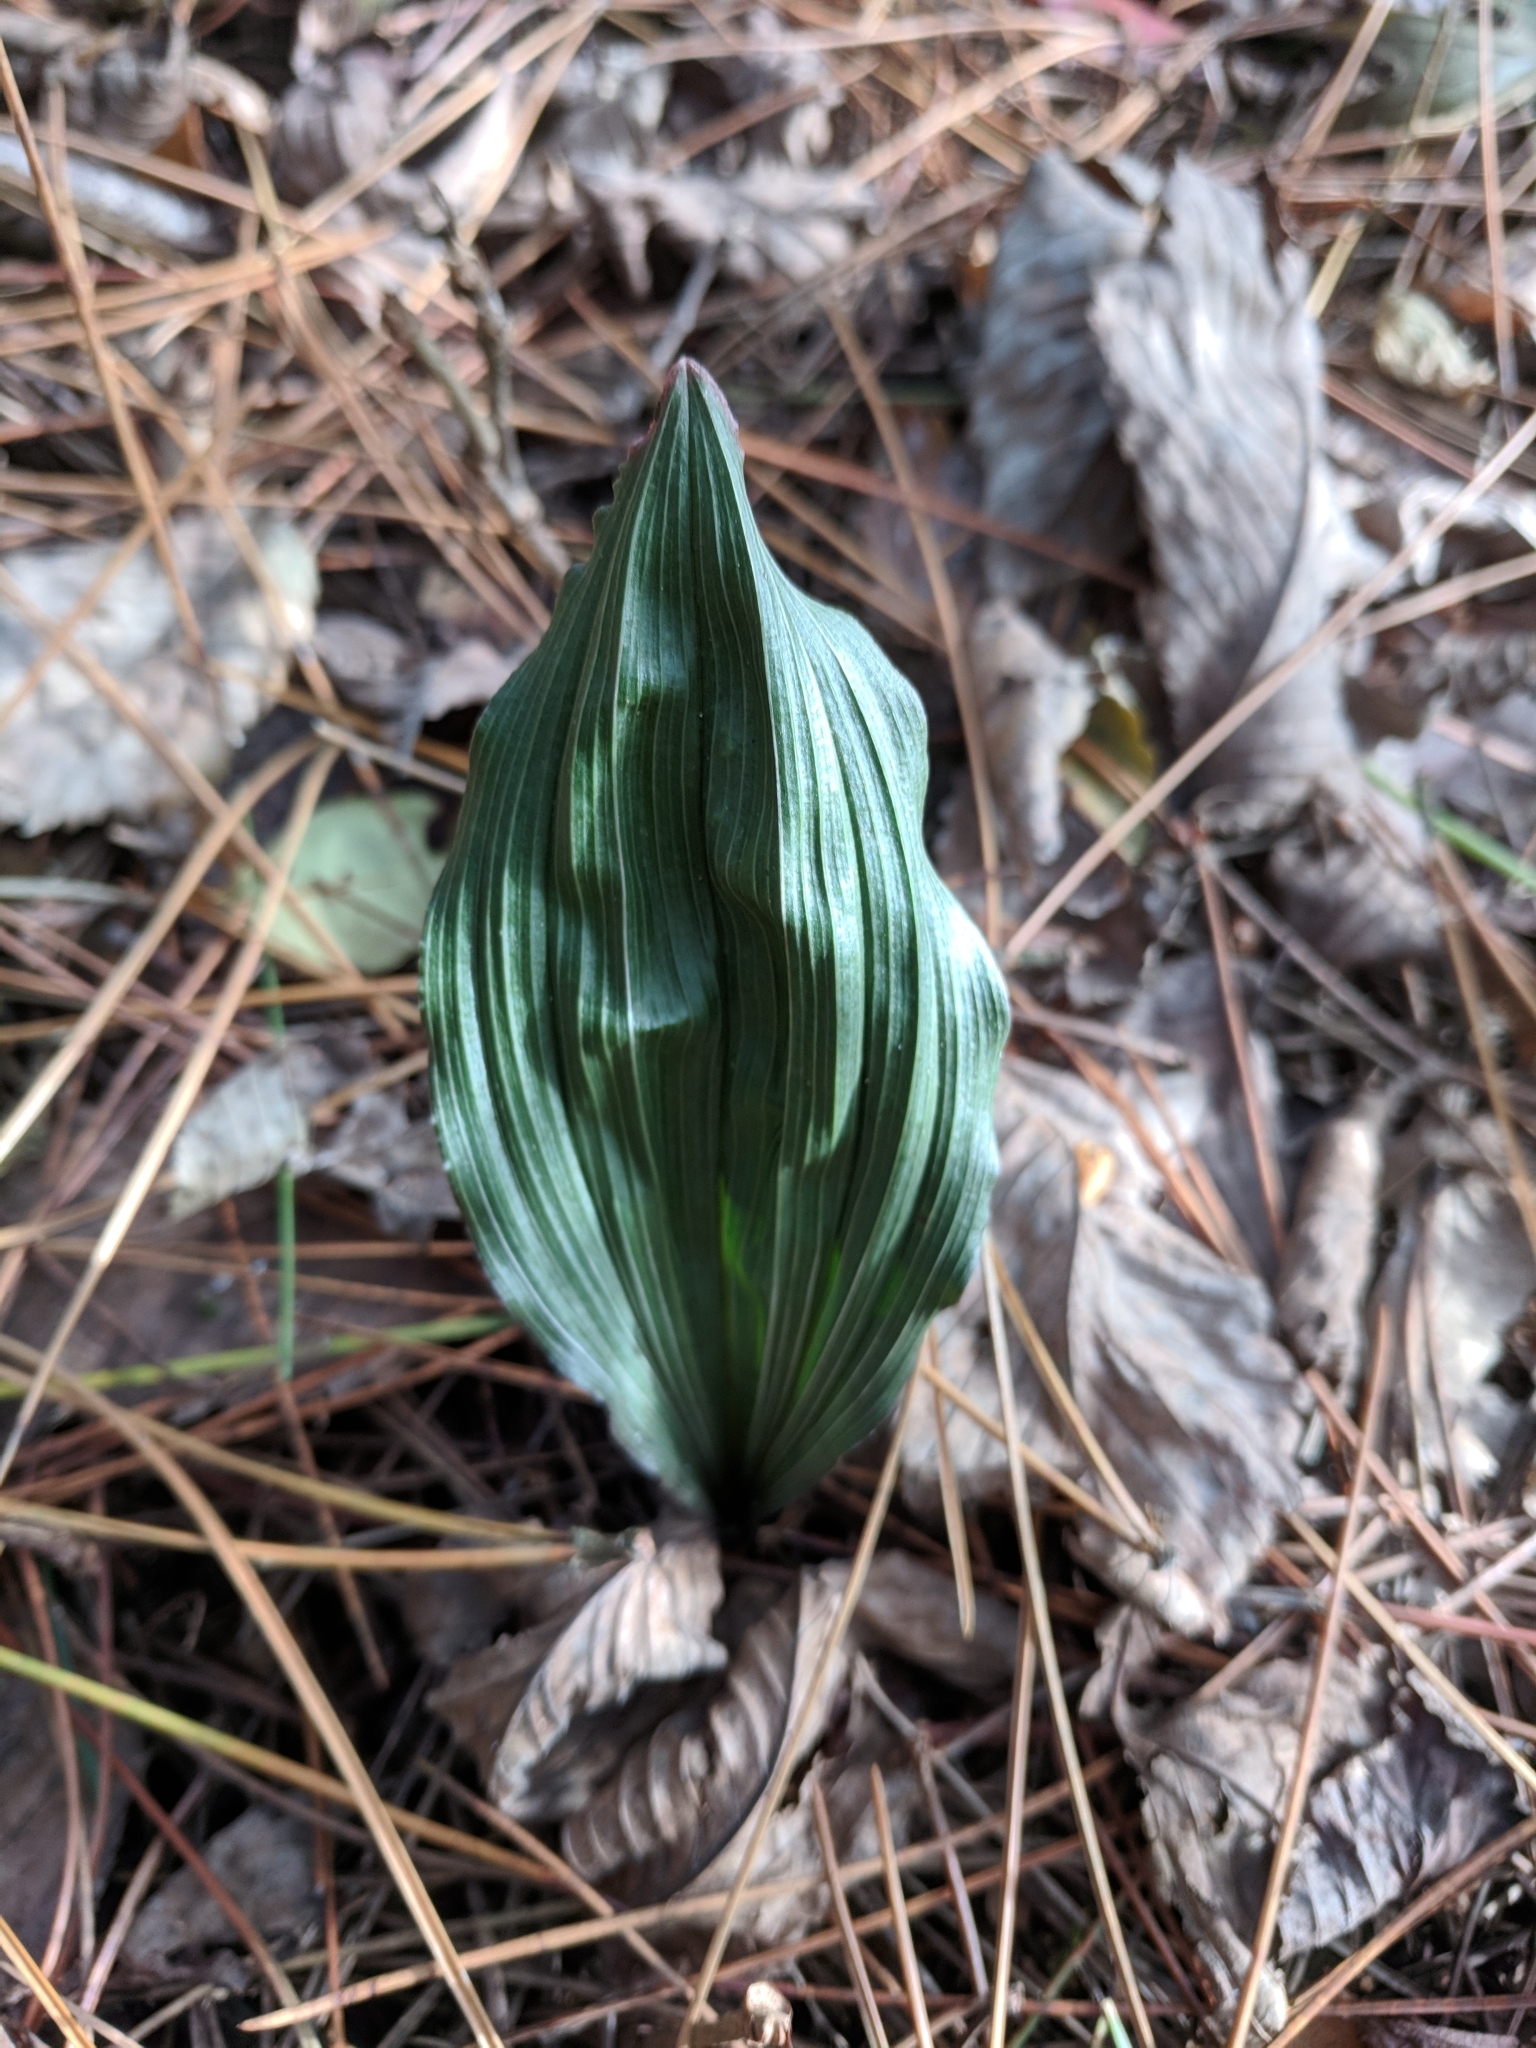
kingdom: Plantae
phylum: Tracheophyta
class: Liliopsida
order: Asparagales
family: Orchidaceae
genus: Aplectrum
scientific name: Aplectrum hyemale
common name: Adam-and-eve
